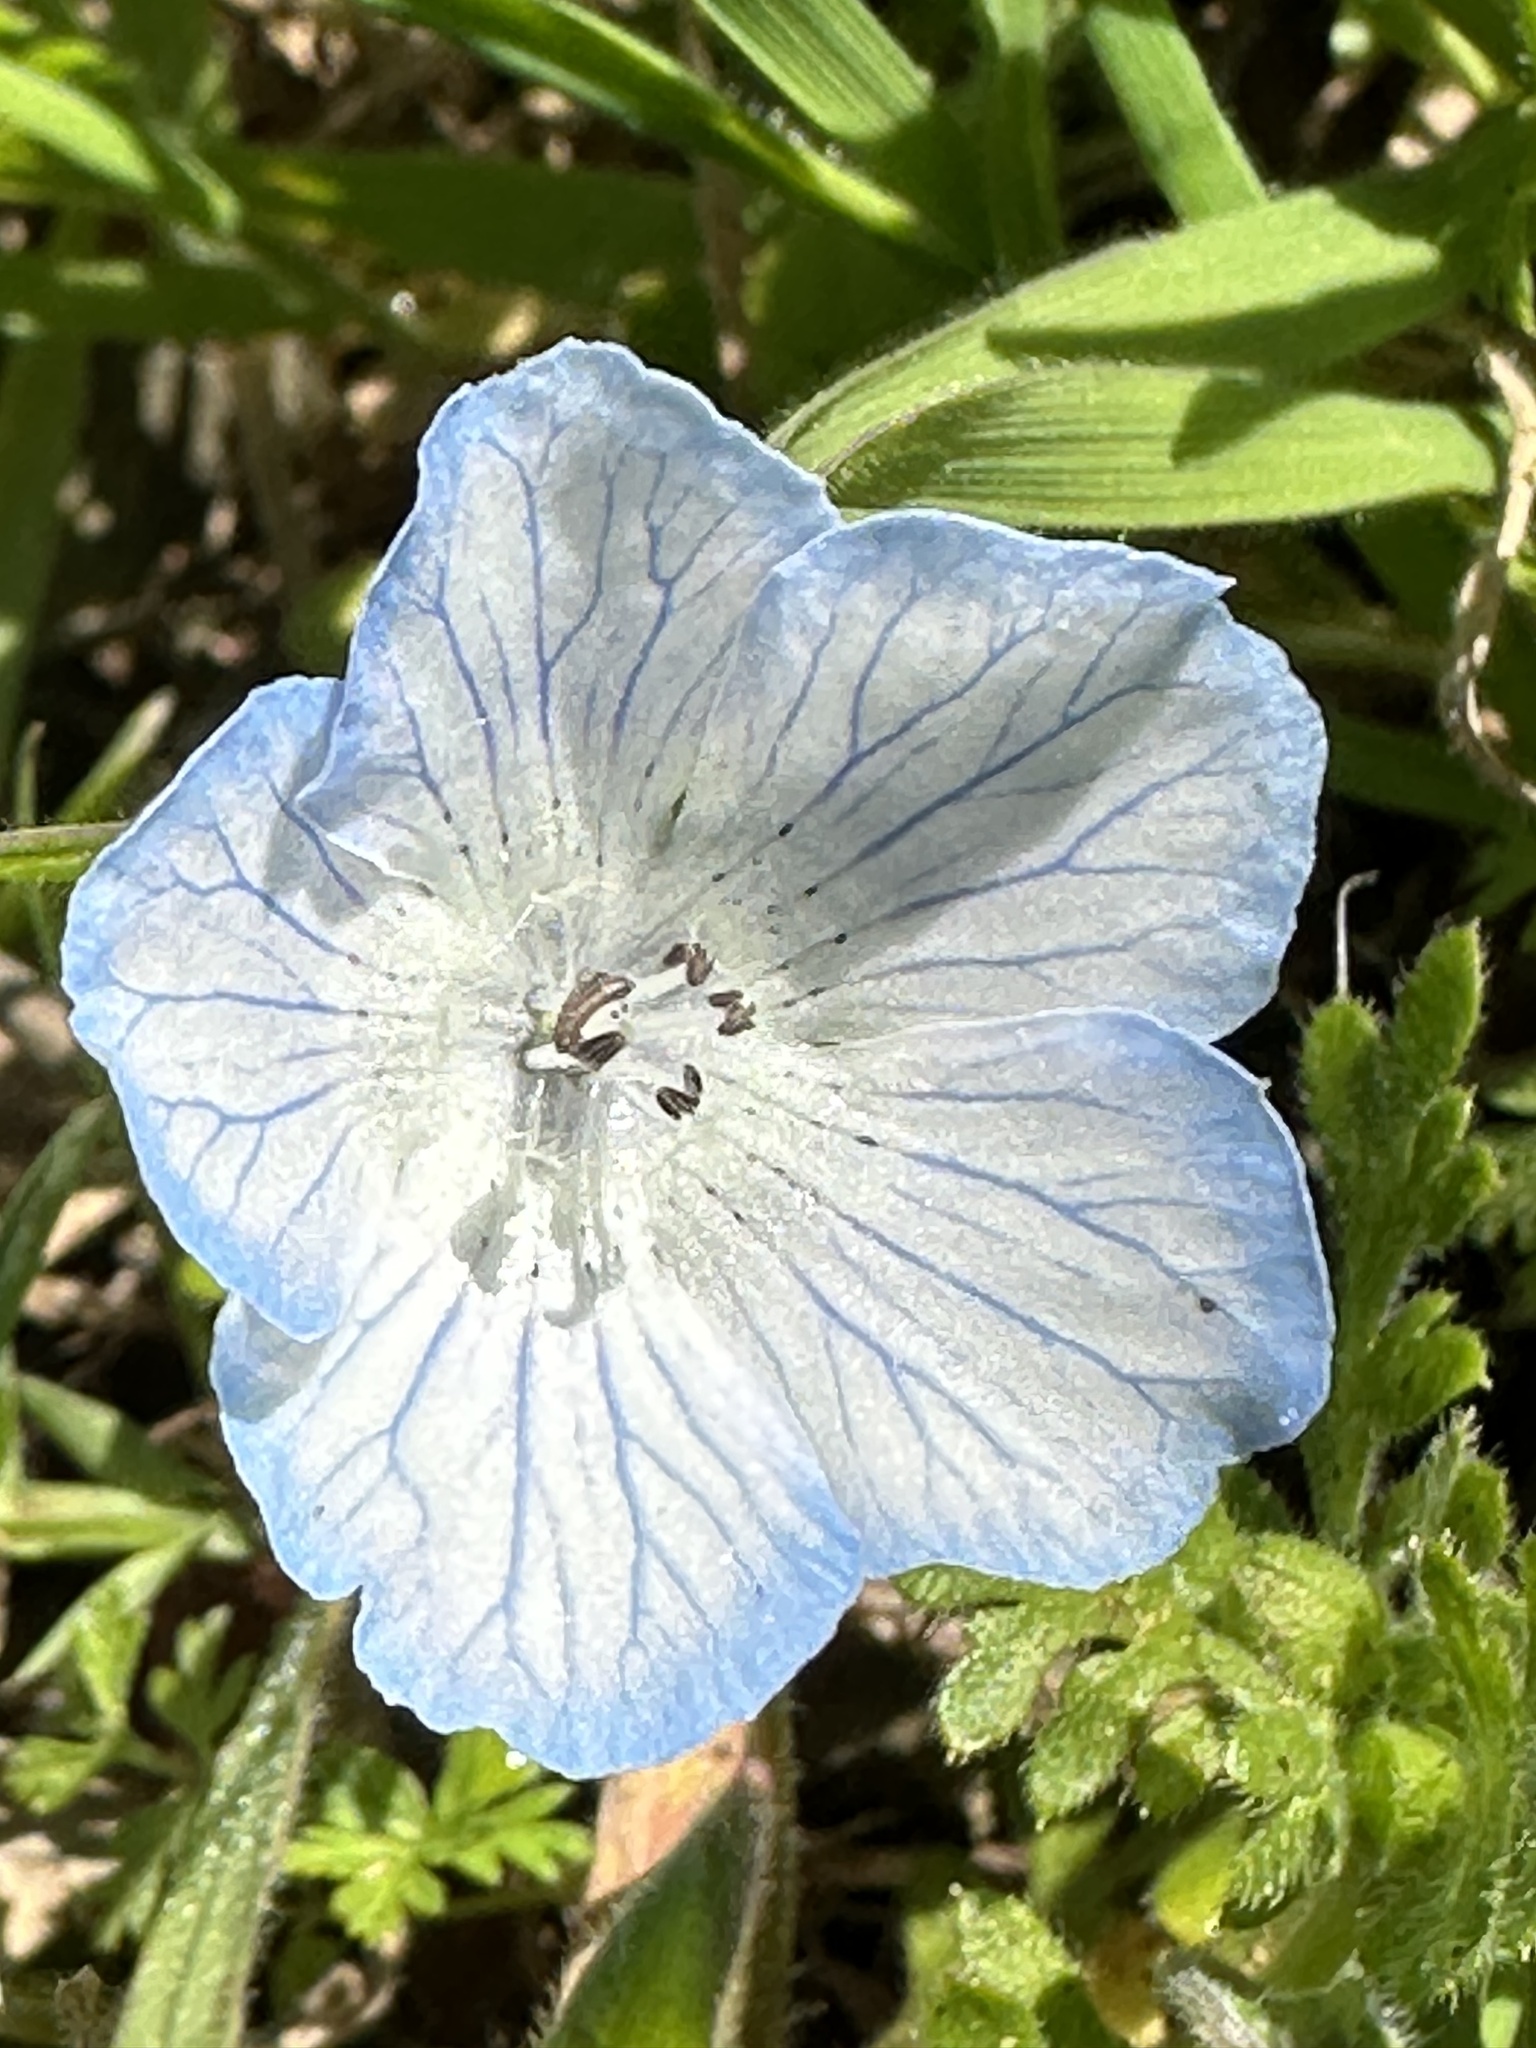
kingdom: Plantae
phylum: Tracheophyta
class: Magnoliopsida
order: Boraginales
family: Hydrophyllaceae
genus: Nemophila
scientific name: Nemophila menziesii
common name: Baby's-blue-eyes
